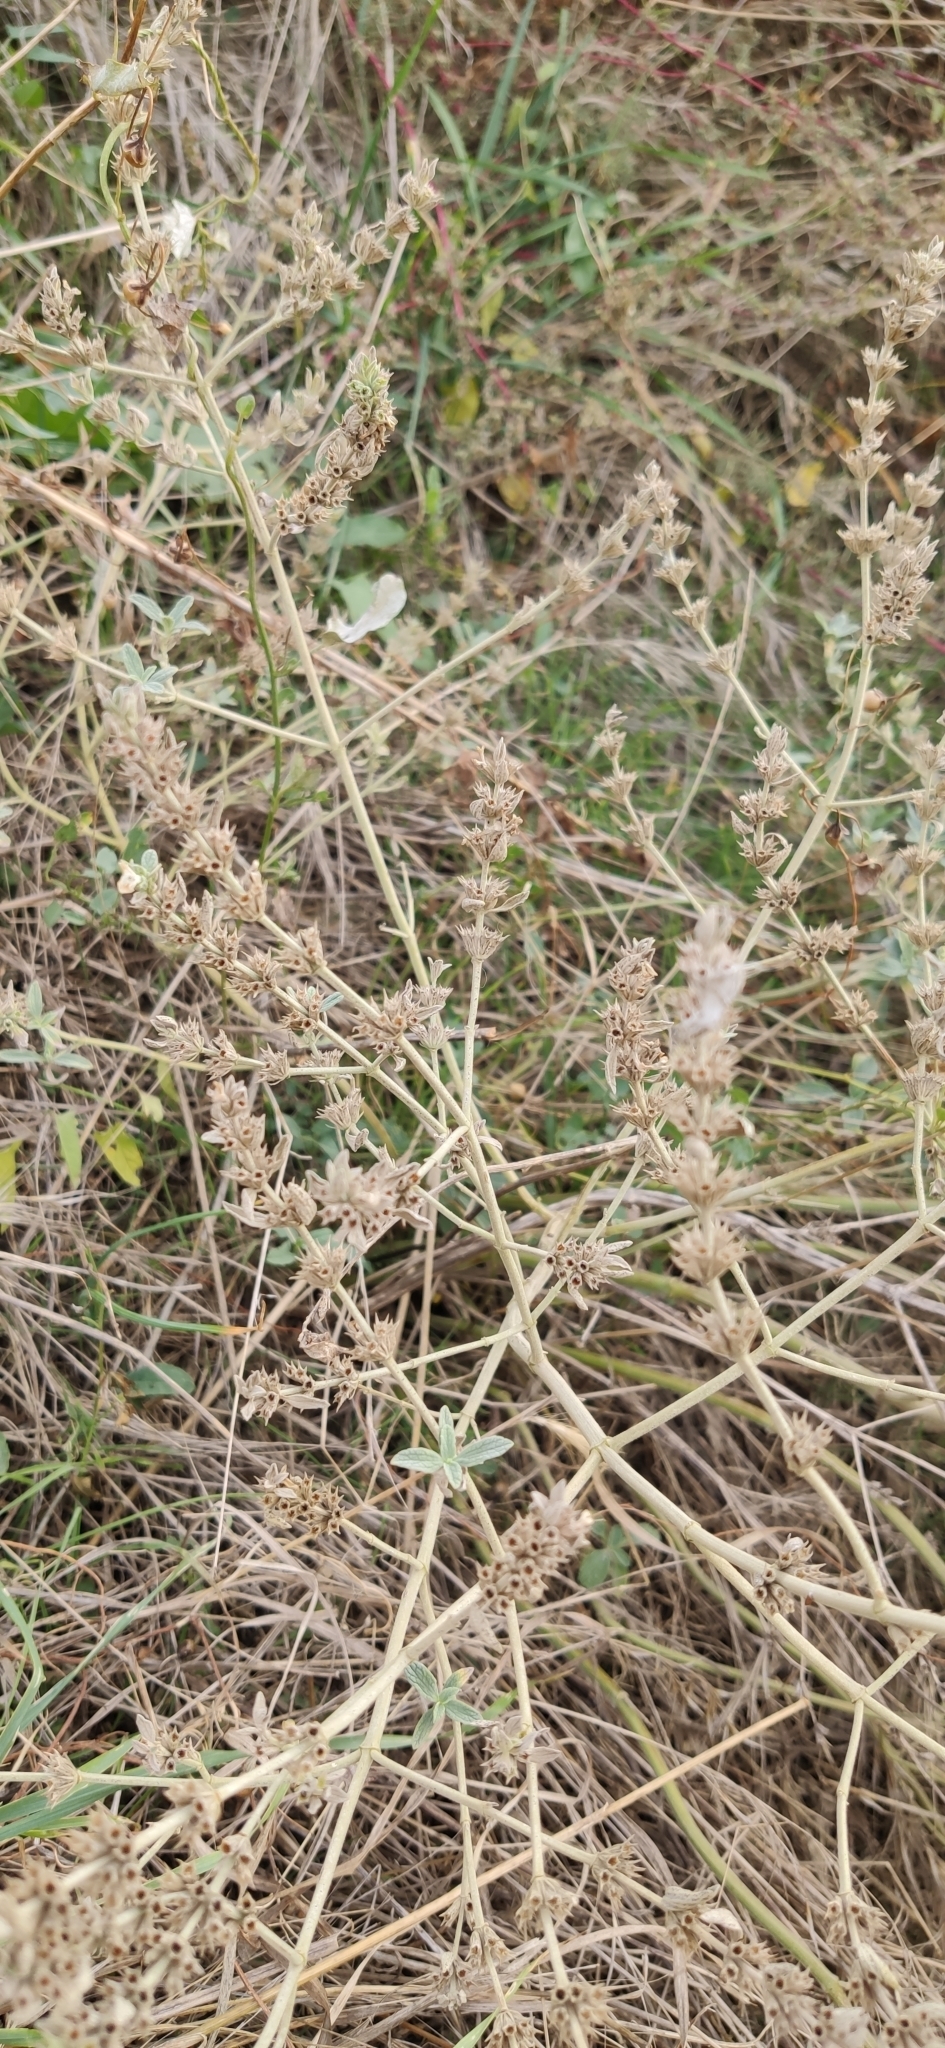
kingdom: Plantae
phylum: Tracheophyta
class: Magnoliopsida
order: Lamiales
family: Lamiaceae
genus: Marrubium
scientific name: Marrubium peregrinum
